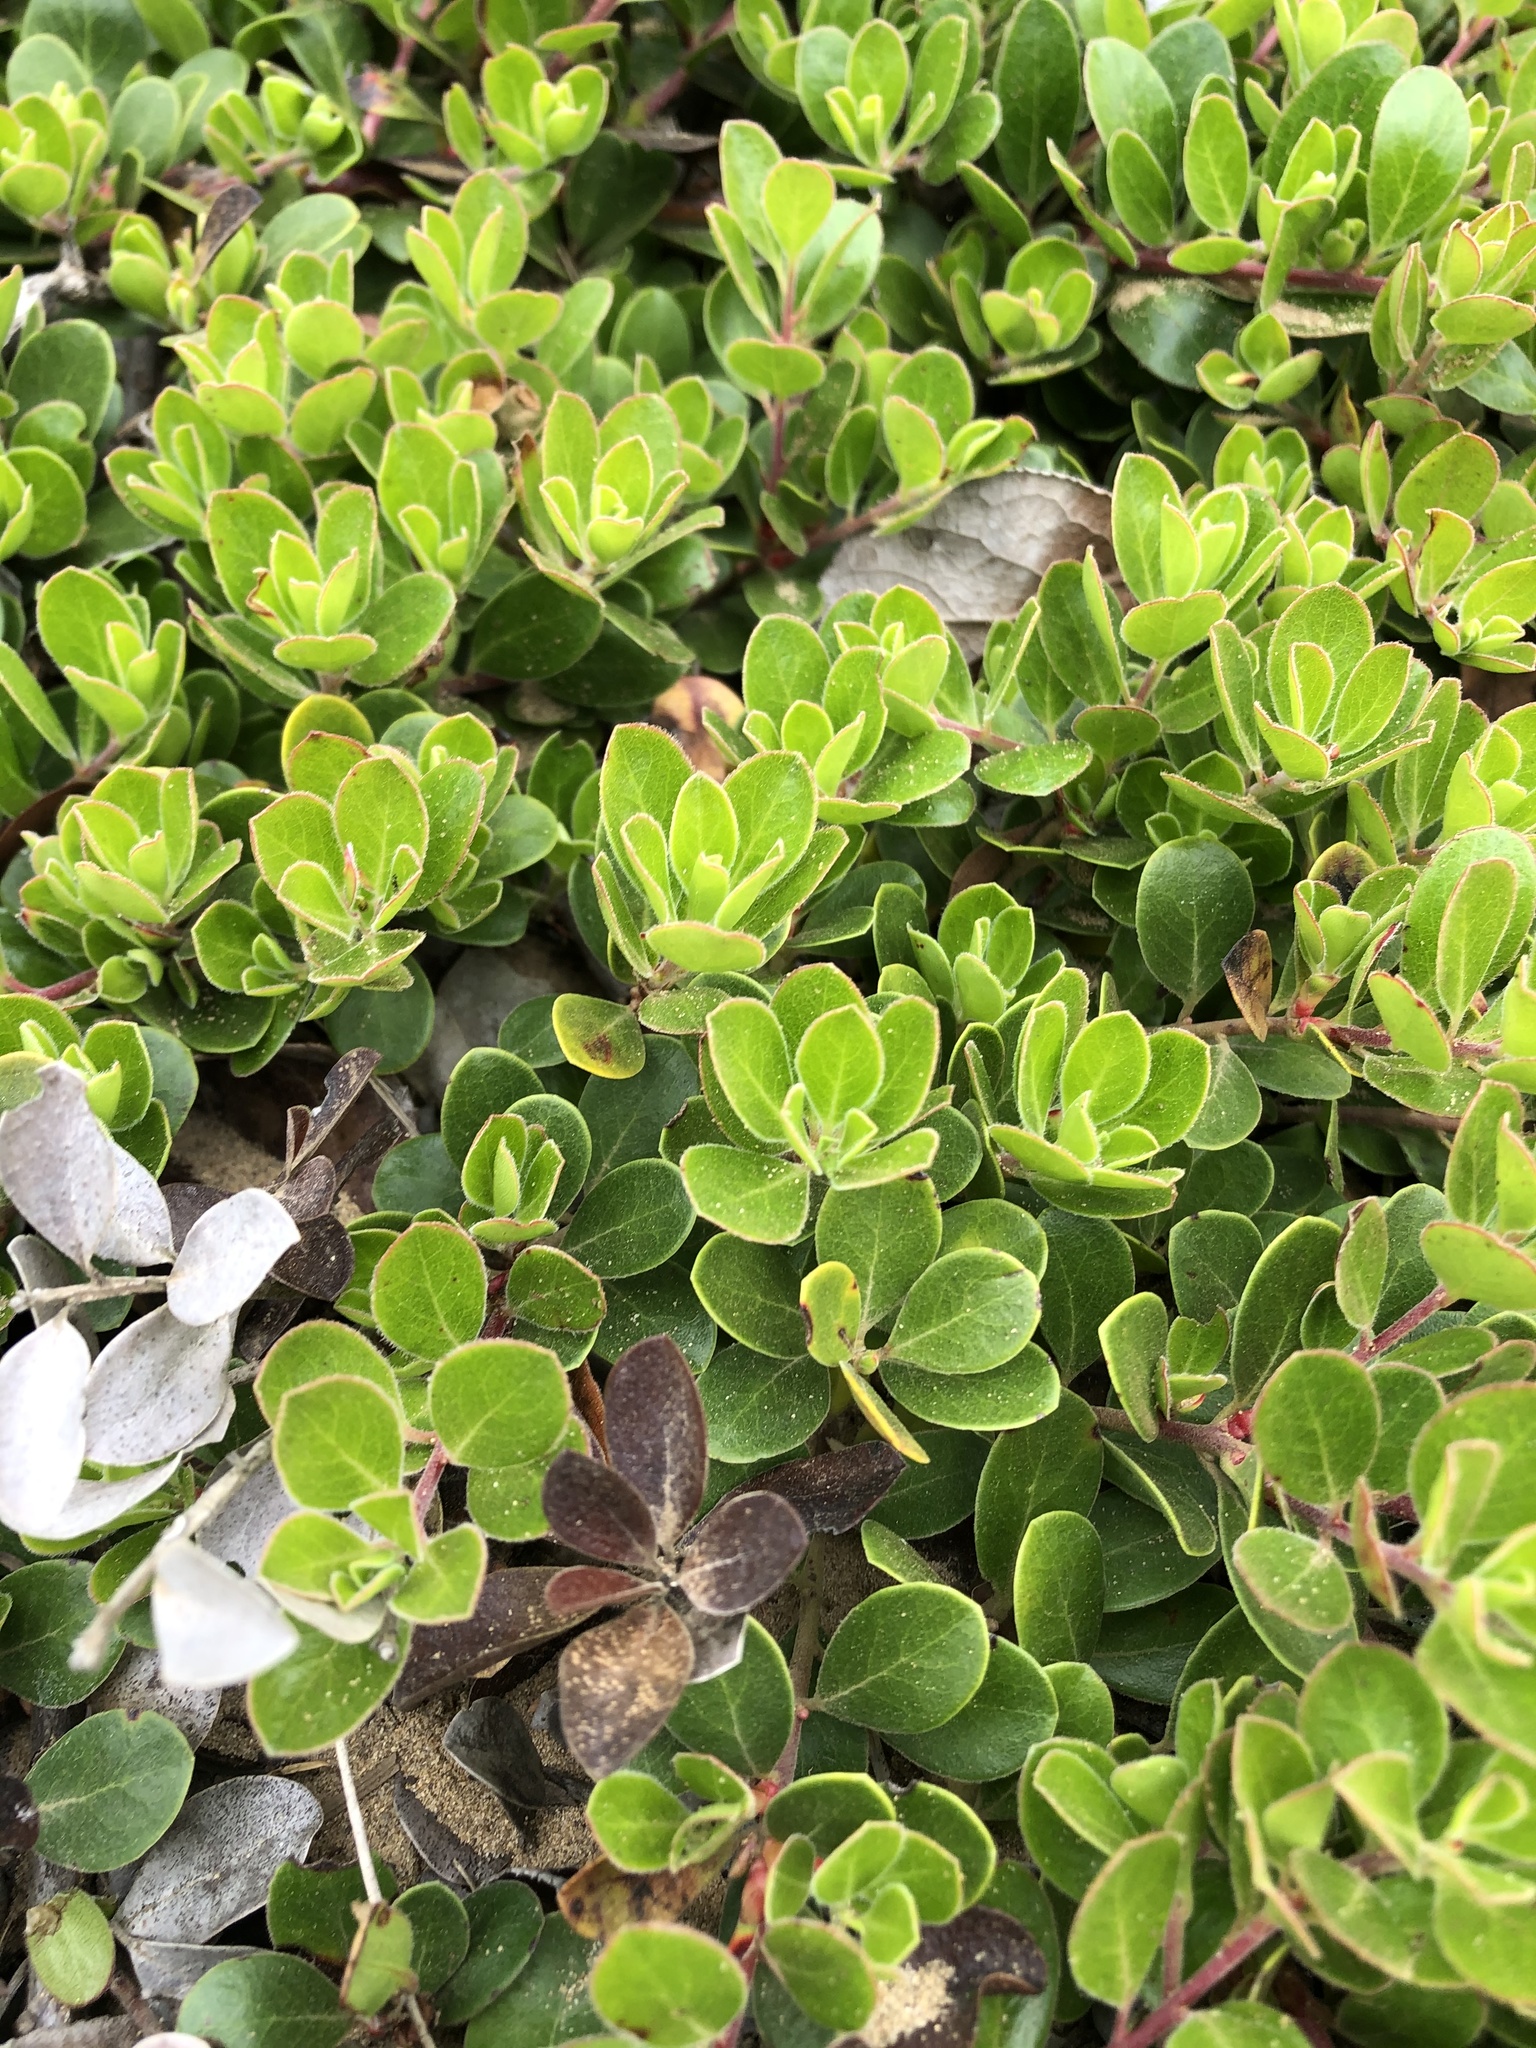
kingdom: Plantae
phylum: Tracheophyta
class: Magnoliopsida
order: Ericales
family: Ericaceae
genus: Arctostaphylos
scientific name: Arctostaphylos uva-ursi
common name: Bearberry
